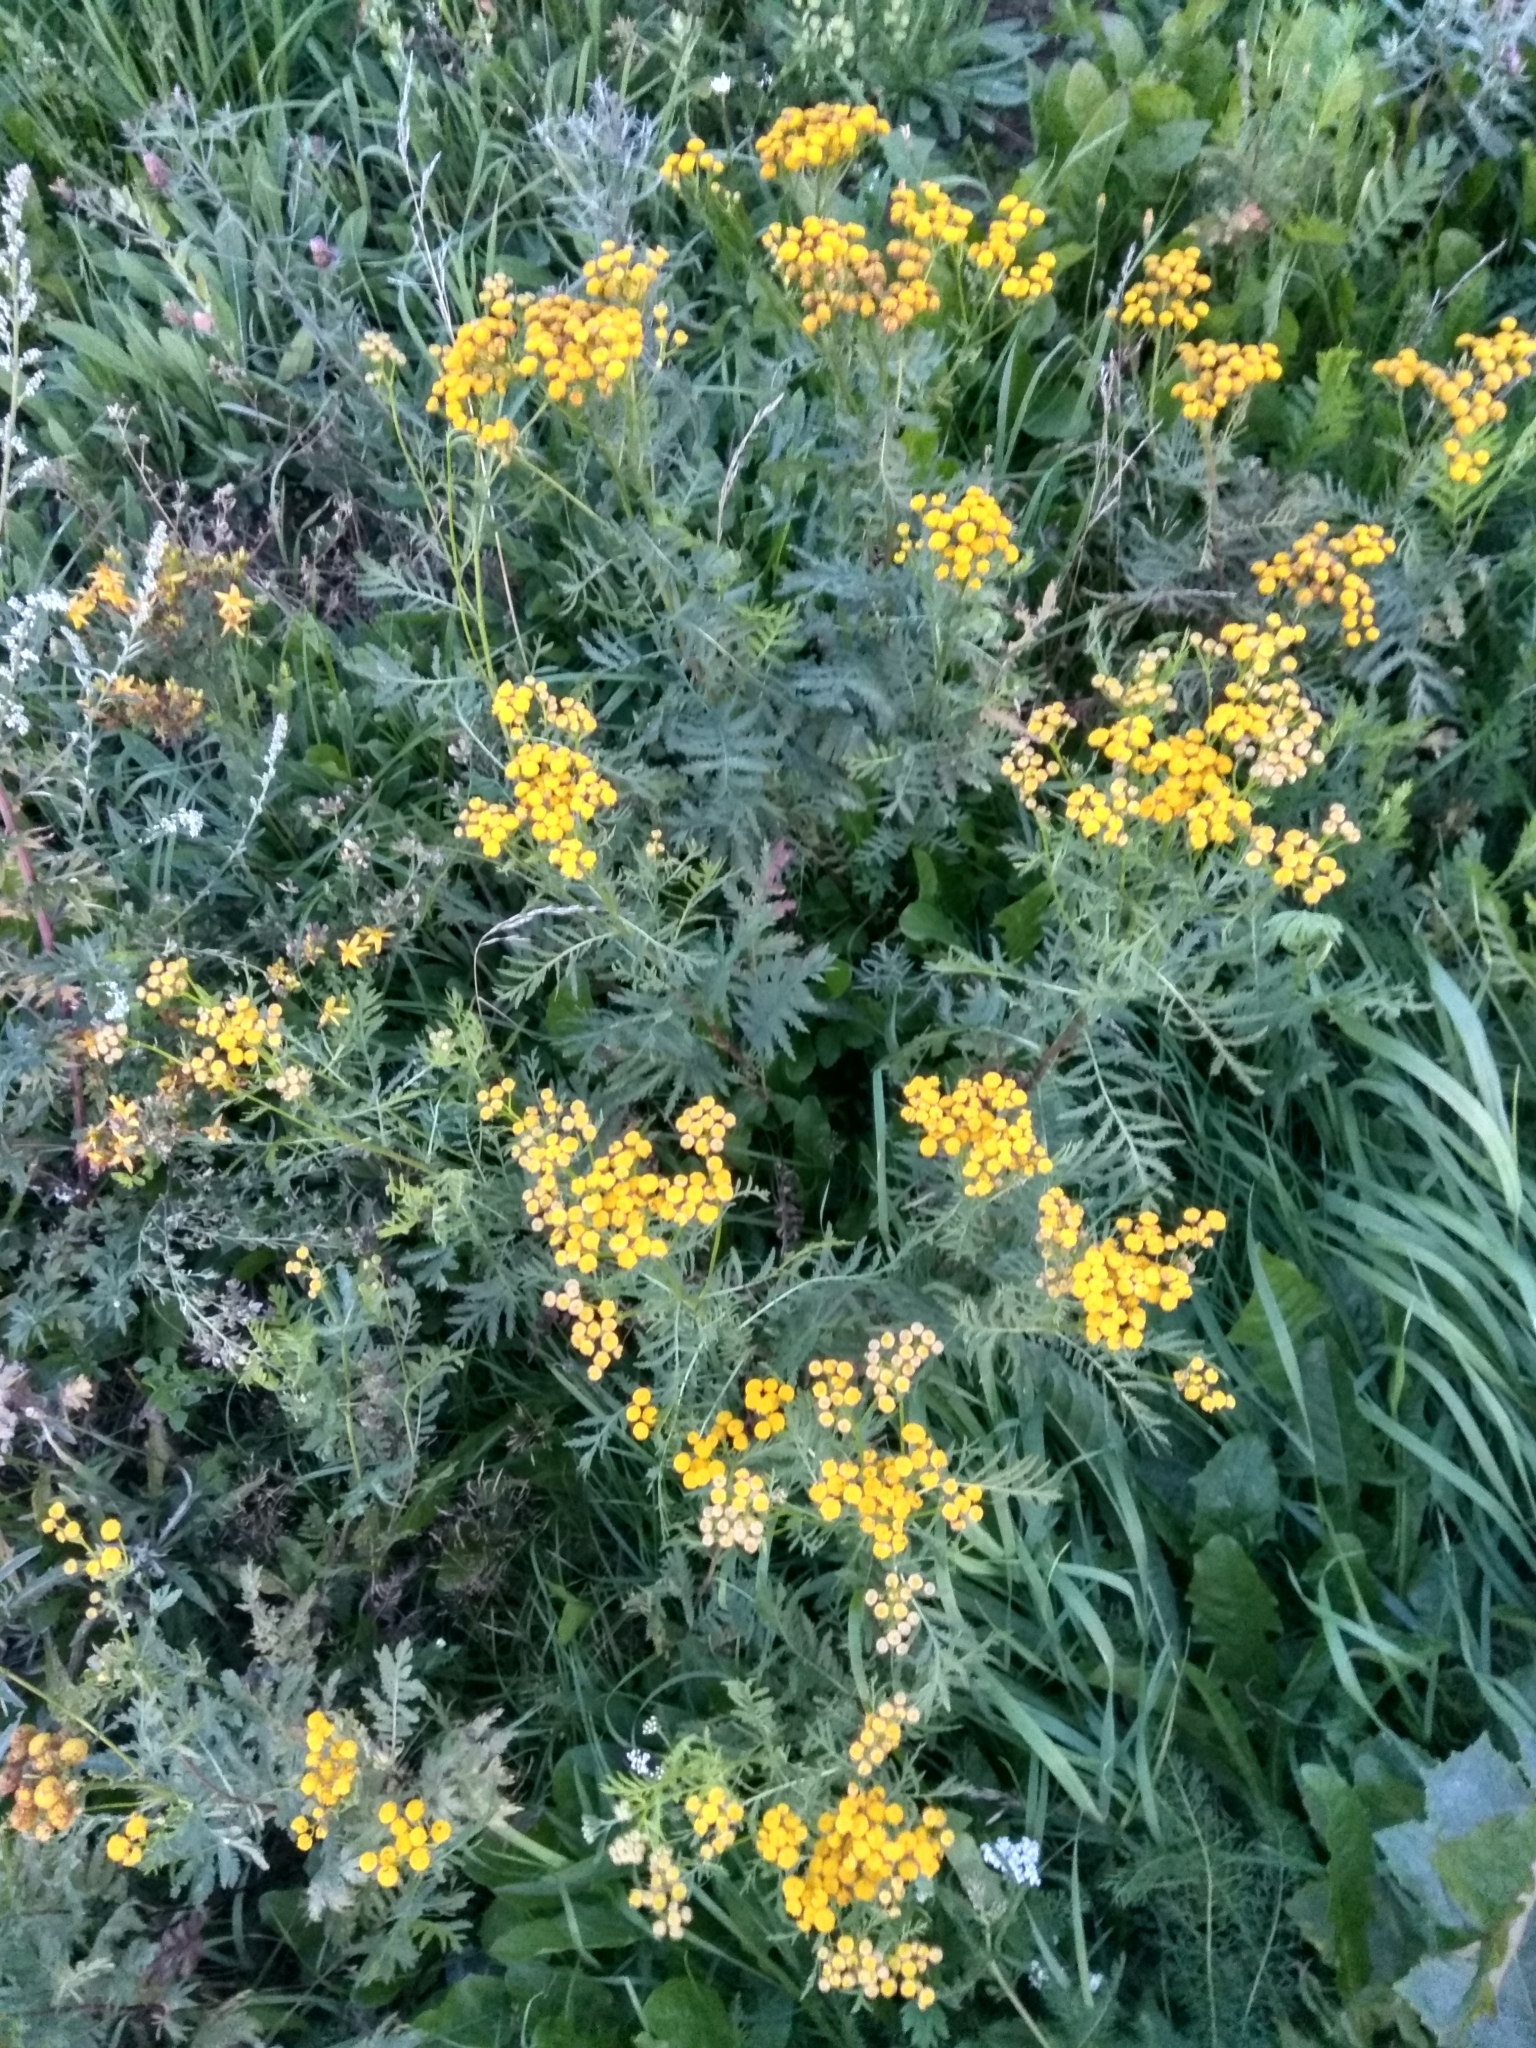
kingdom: Plantae
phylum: Tracheophyta
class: Magnoliopsida
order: Asterales
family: Asteraceae
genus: Tanacetum
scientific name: Tanacetum vulgare
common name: Common tansy
